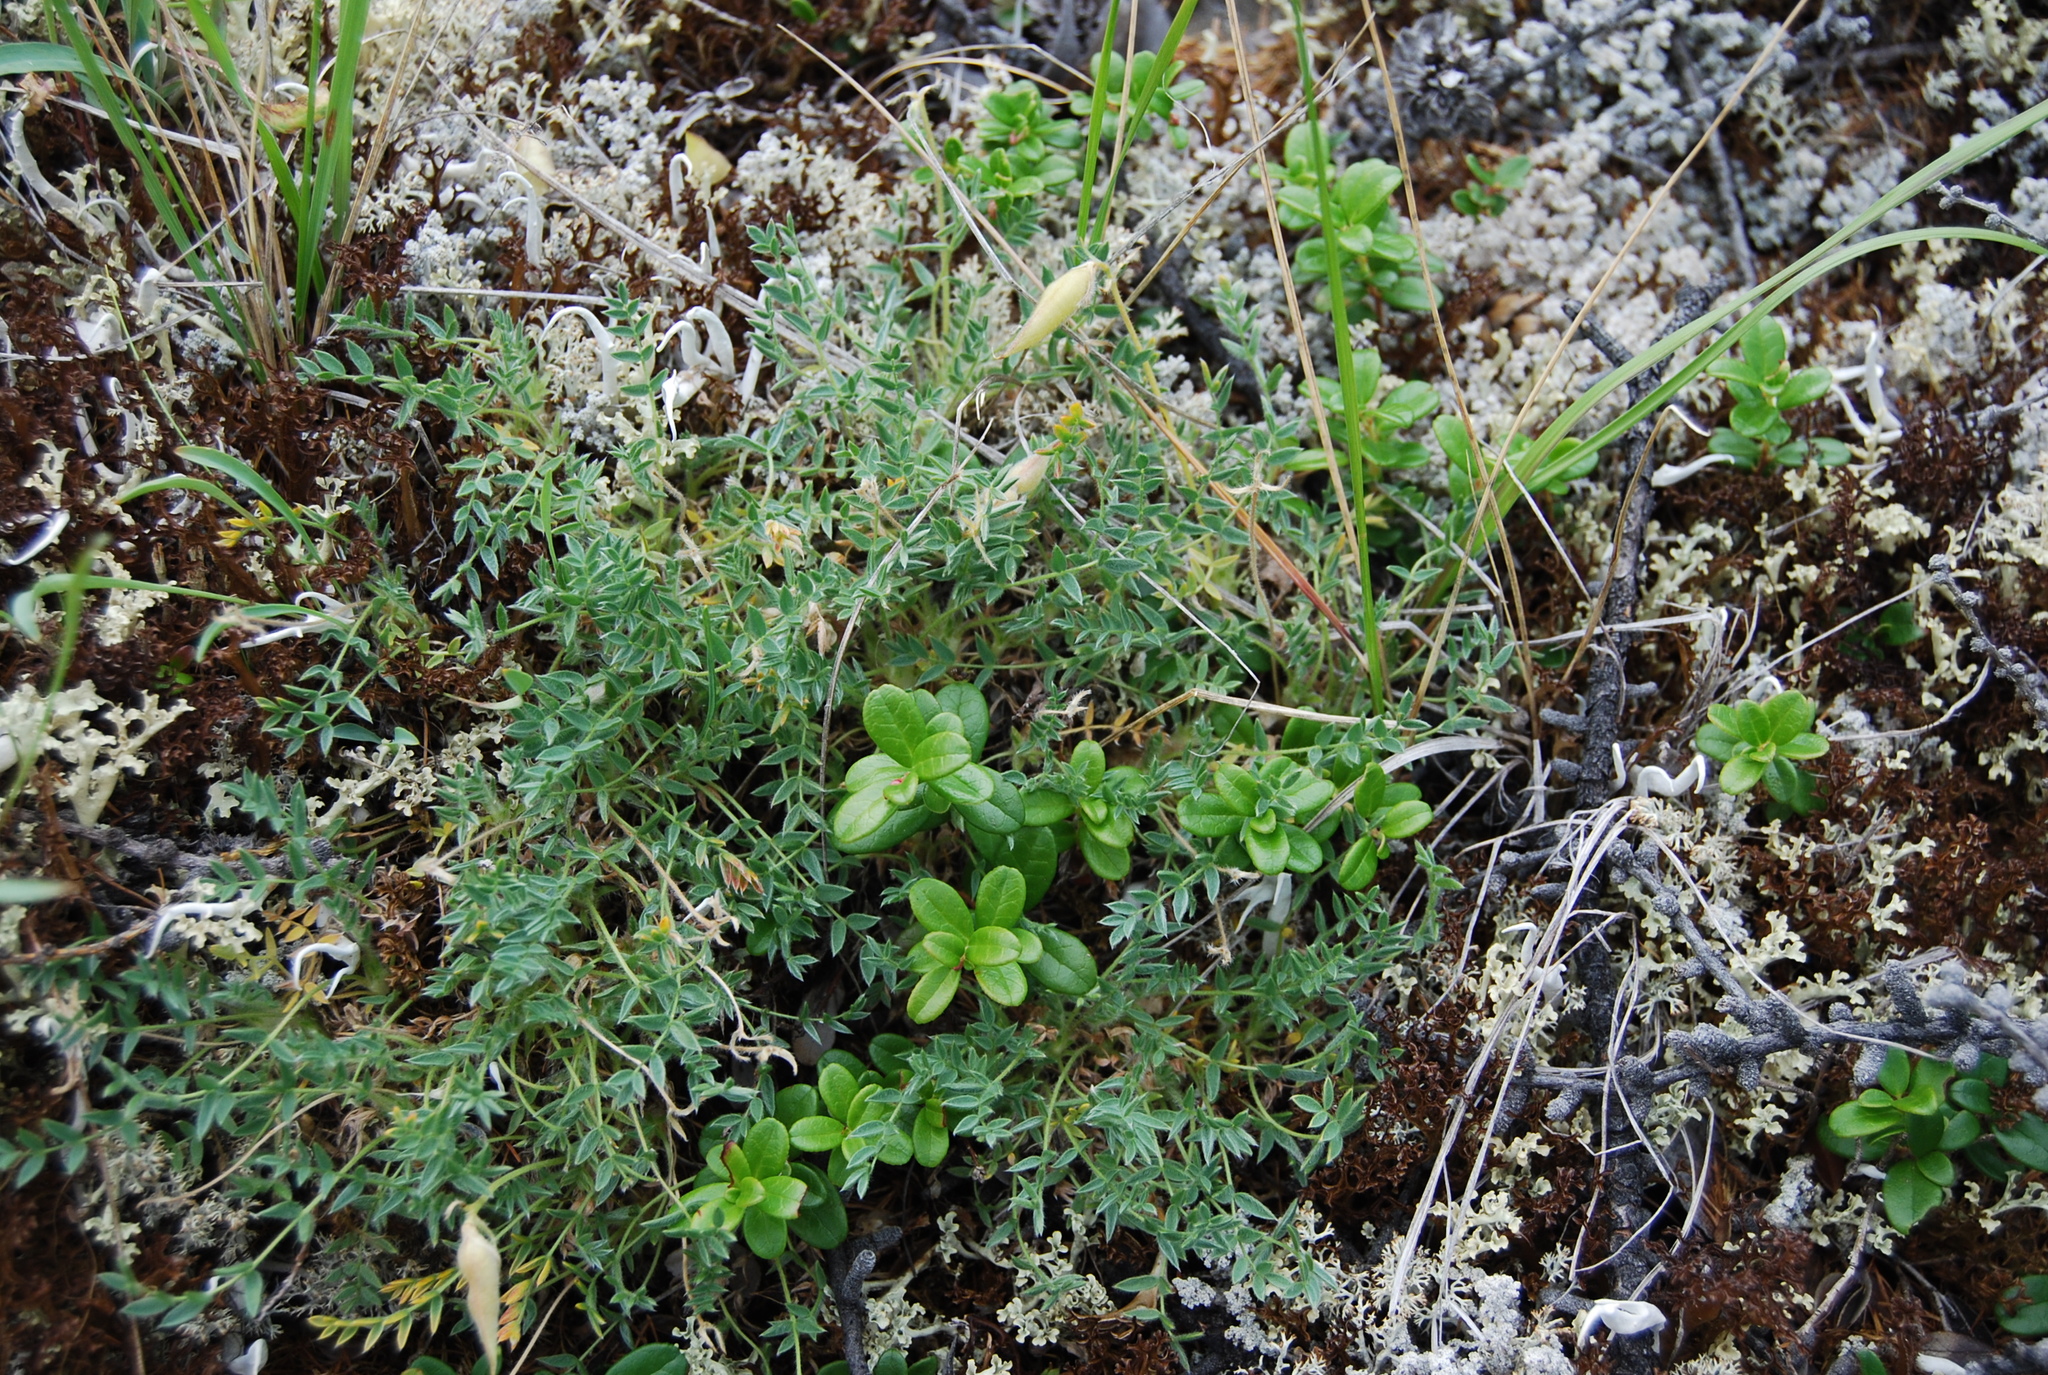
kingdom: Plantae
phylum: Tracheophyta
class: Magnoliopsida
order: Fabales
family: Fabaceae
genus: Oxytropis
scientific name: Oxytropis susumanica
